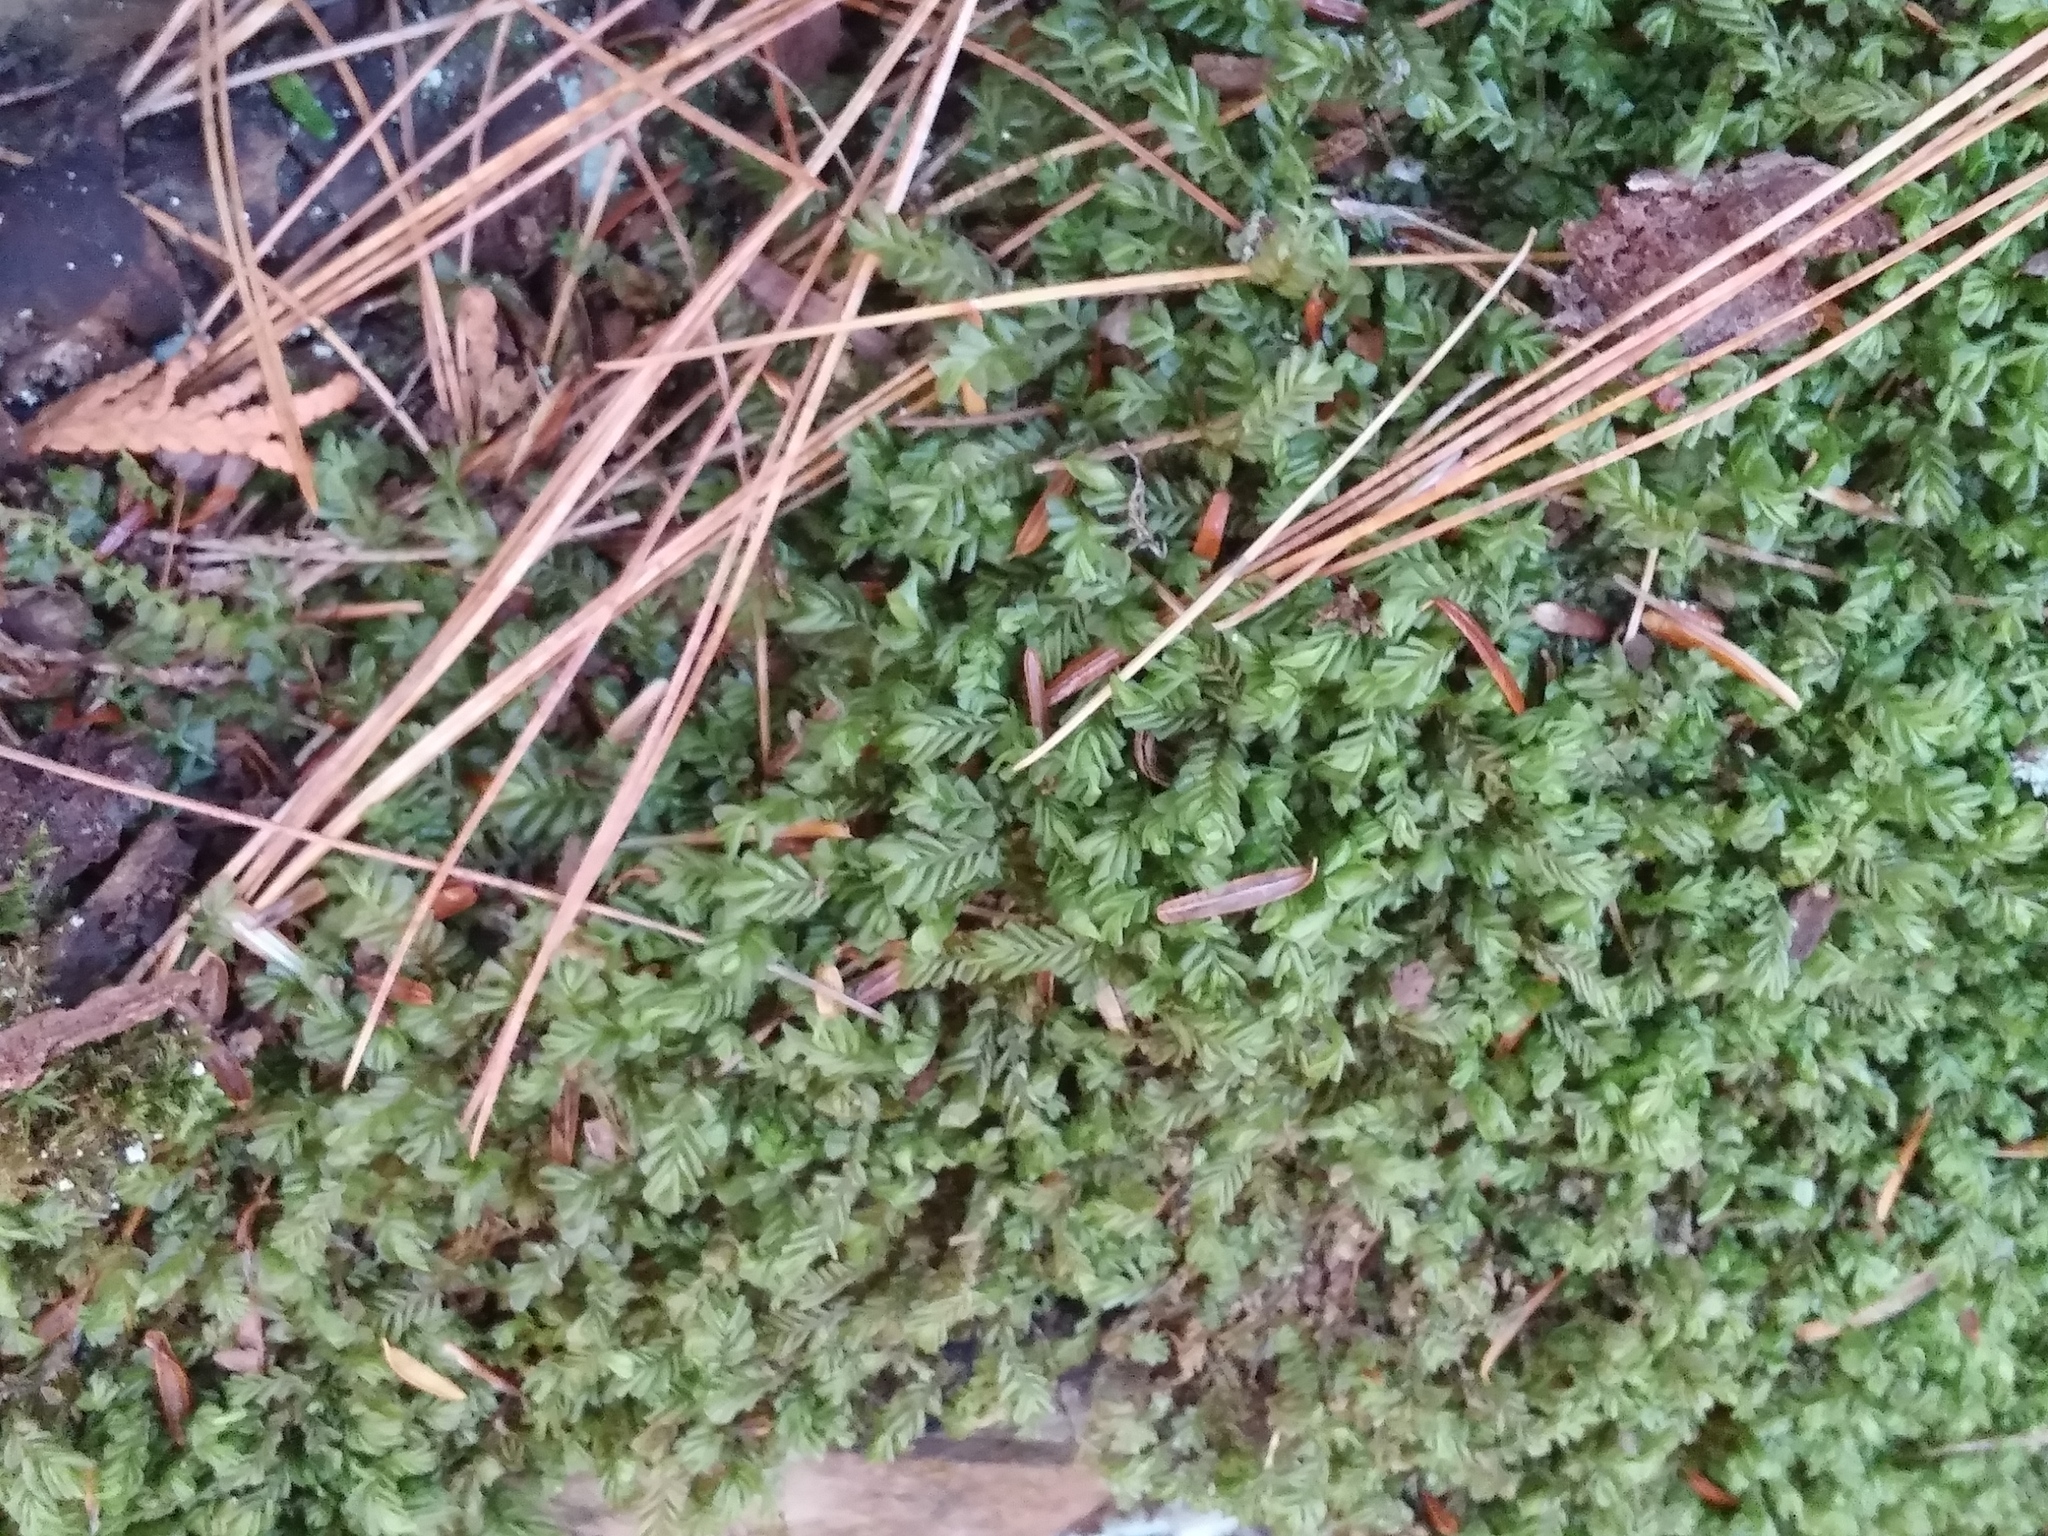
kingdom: Plantae
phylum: Marchantiophyta
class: Jungermanniopsida
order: Jungermanniales
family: Plagiochilaceae
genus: Plagiochila
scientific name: Plagiochila porelloides
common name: Lesser featherwort
